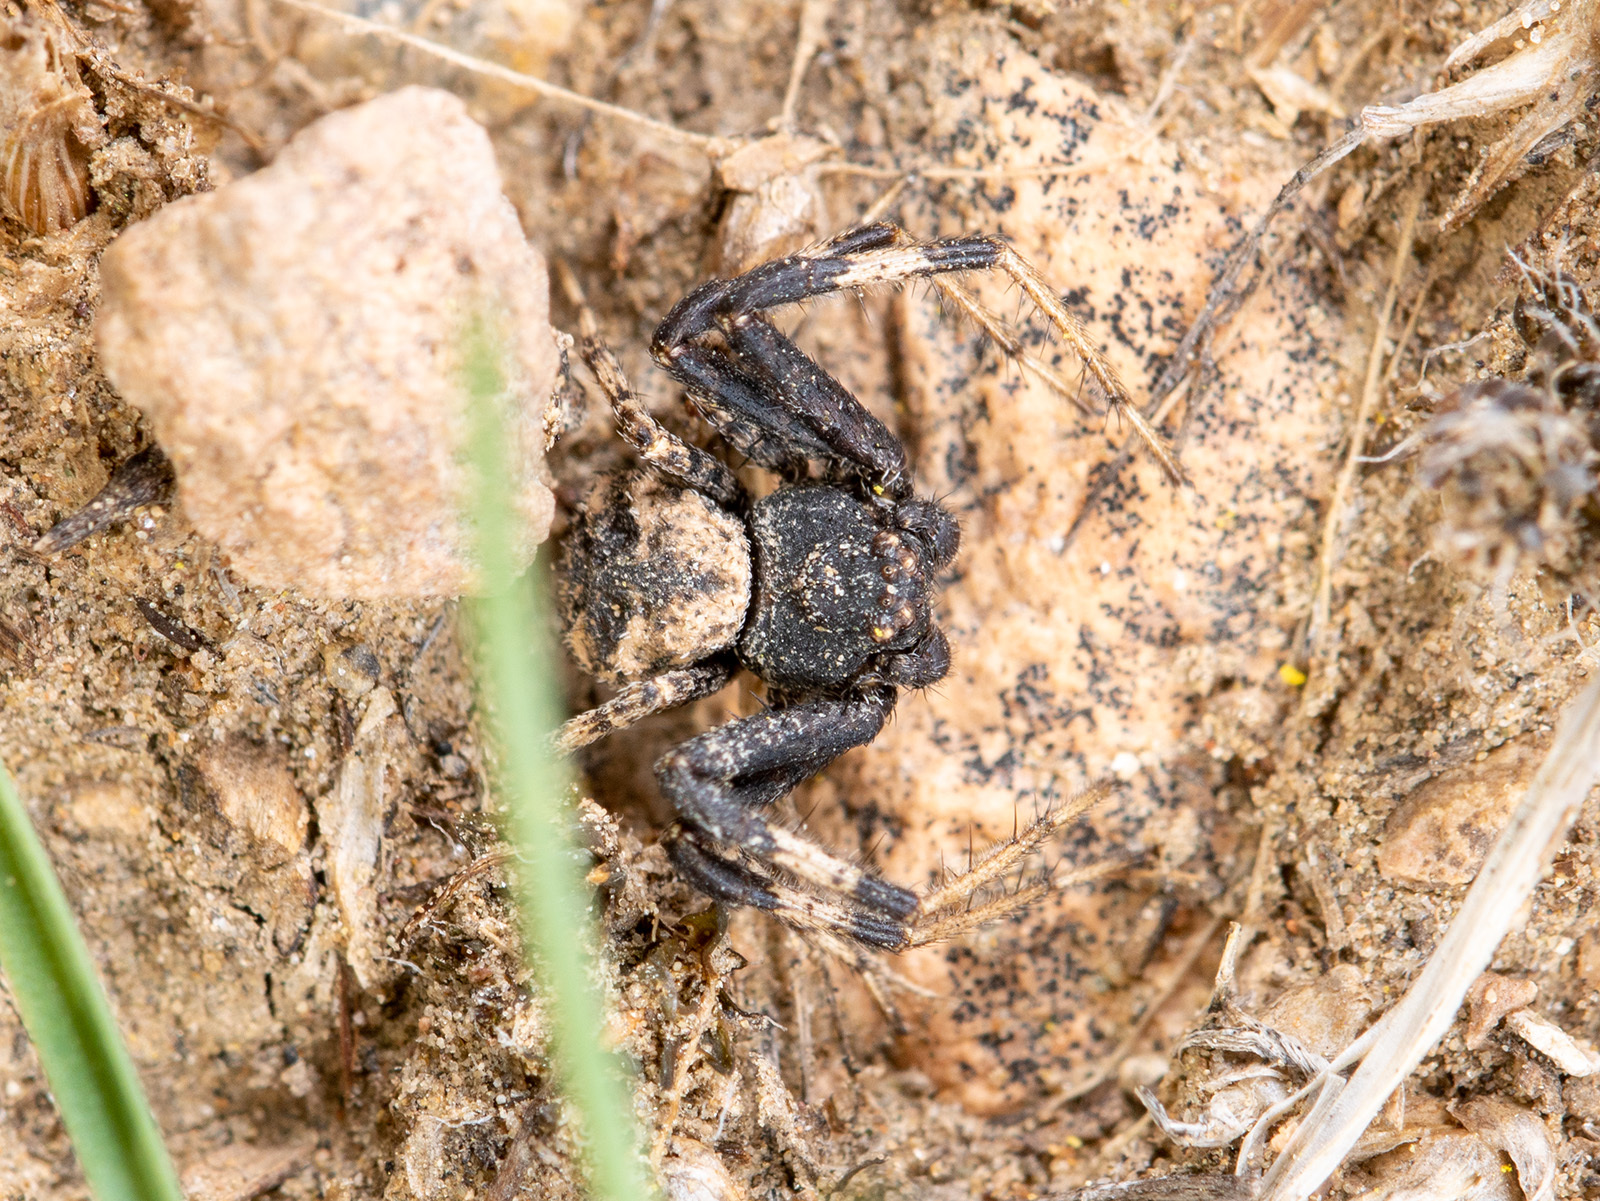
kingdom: Animalia
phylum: Arthropoda
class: Arachnida
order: Araneae
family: Thomisidae
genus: Ozyptila
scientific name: Ozyptila lugubris
